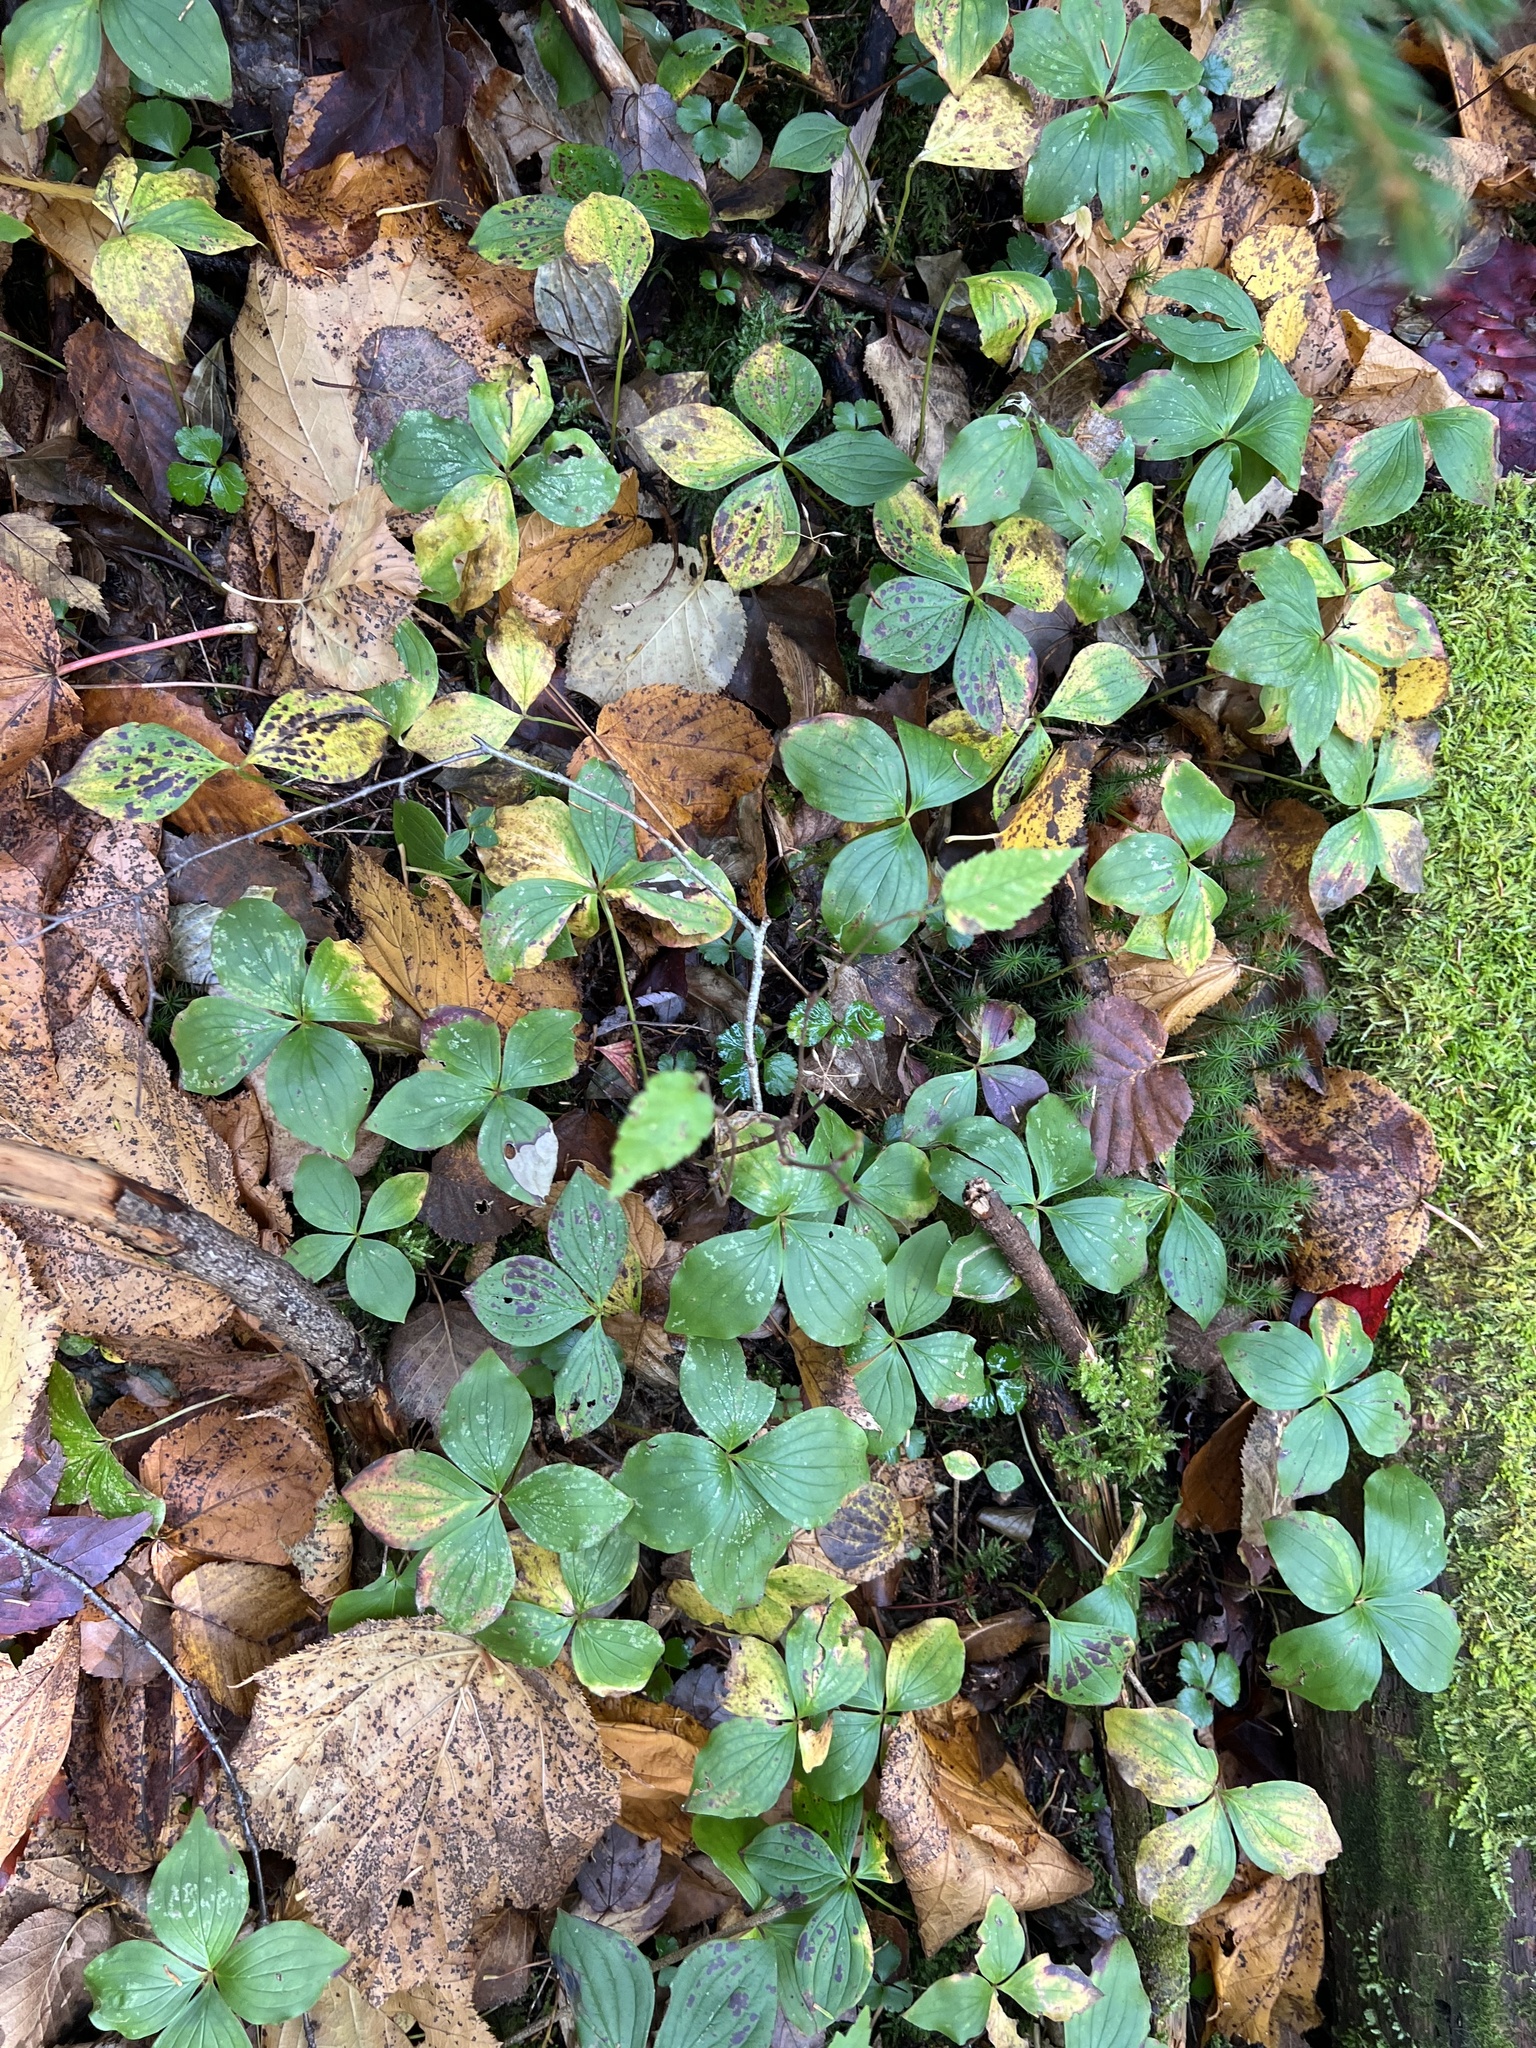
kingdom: Plantae
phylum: Tracheophyta
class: Magnoliopsida
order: Cornales
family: Cornaceae
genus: Cornus
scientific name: Cornus canadensis
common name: Creeping dogwood
